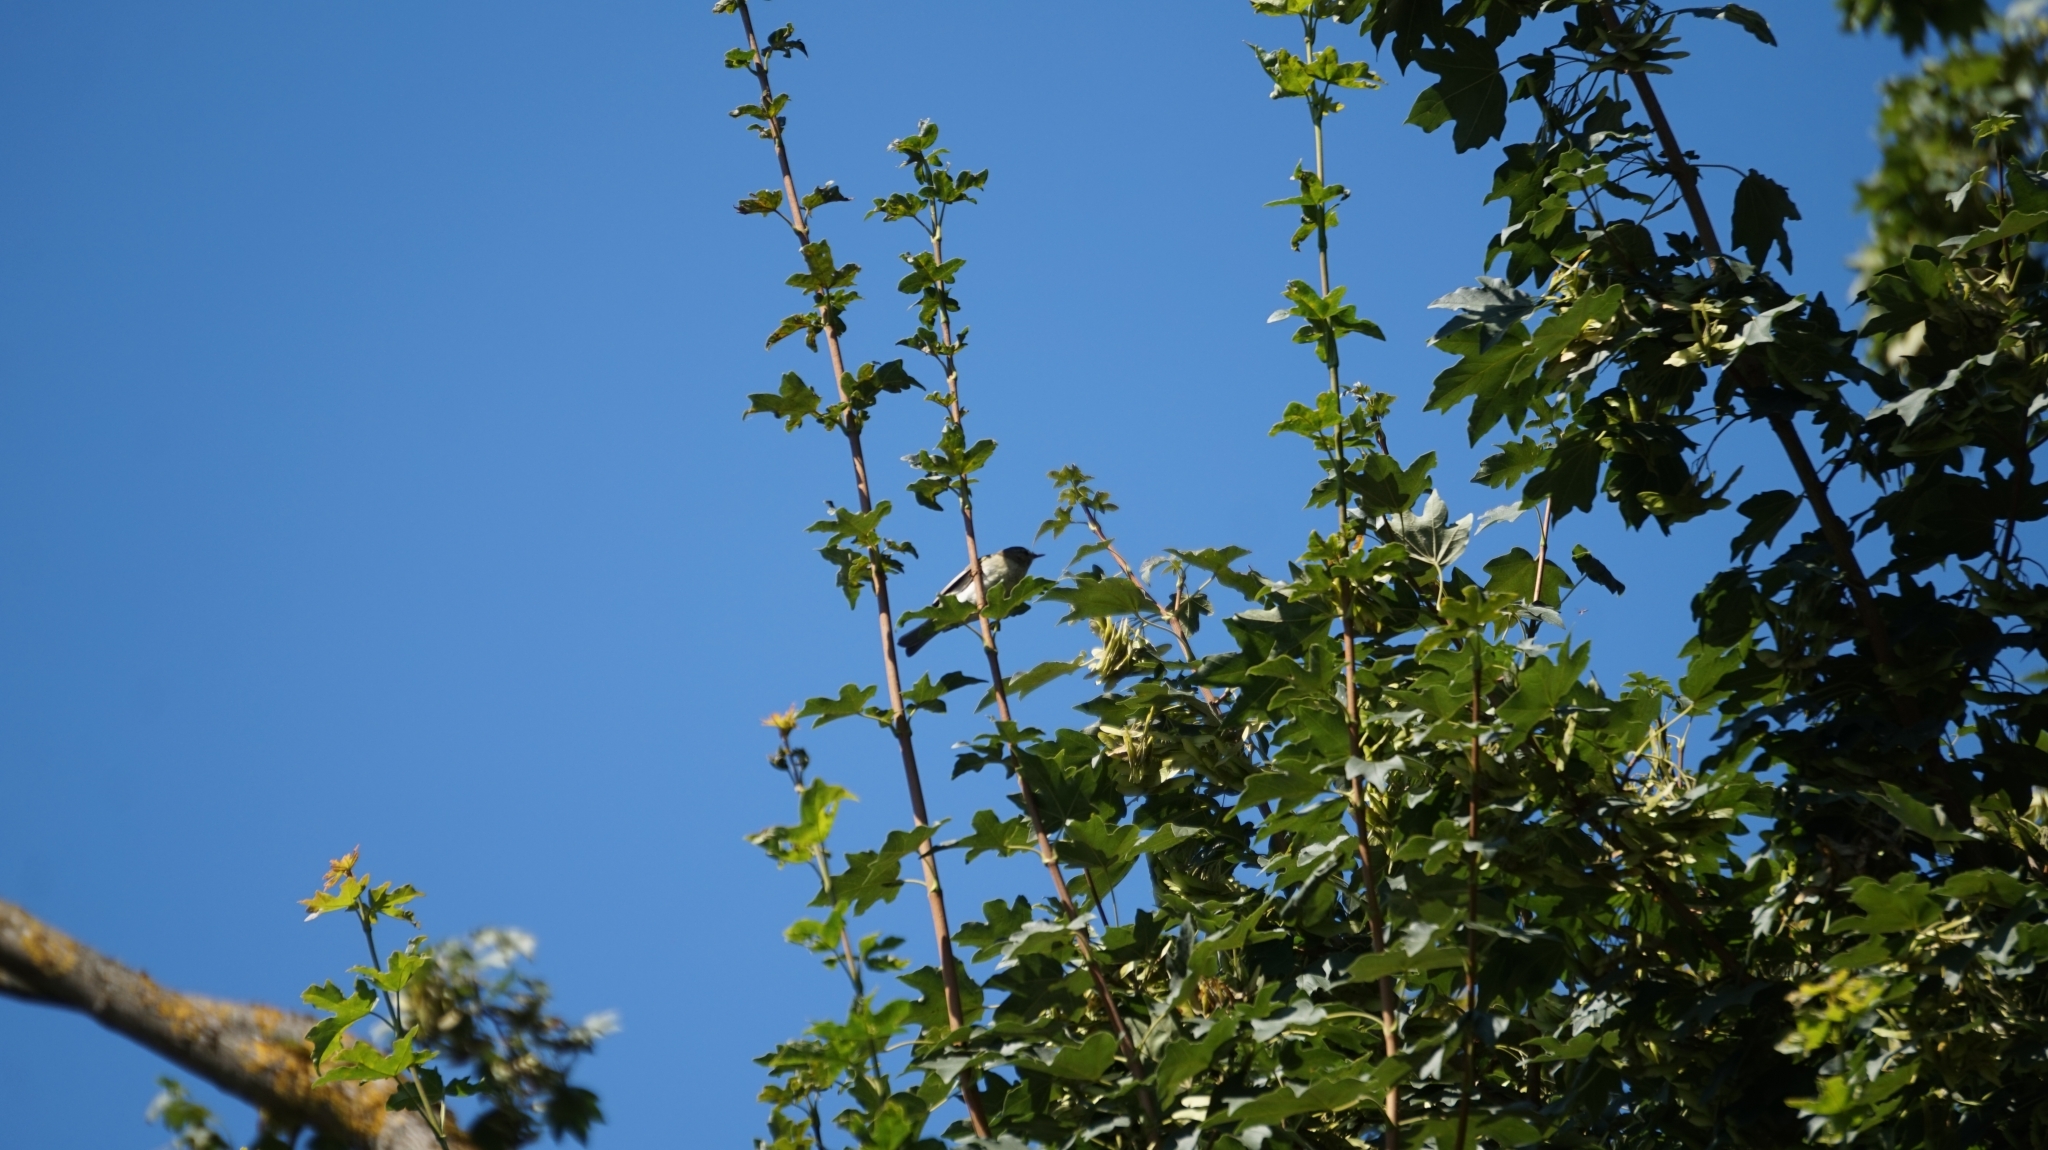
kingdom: Animalia
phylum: Chordata
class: Aves
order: Passeriformes
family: Phylloscopidae
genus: Phylloscopus
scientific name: Phylloscopus collybita
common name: Common chiffchaff
